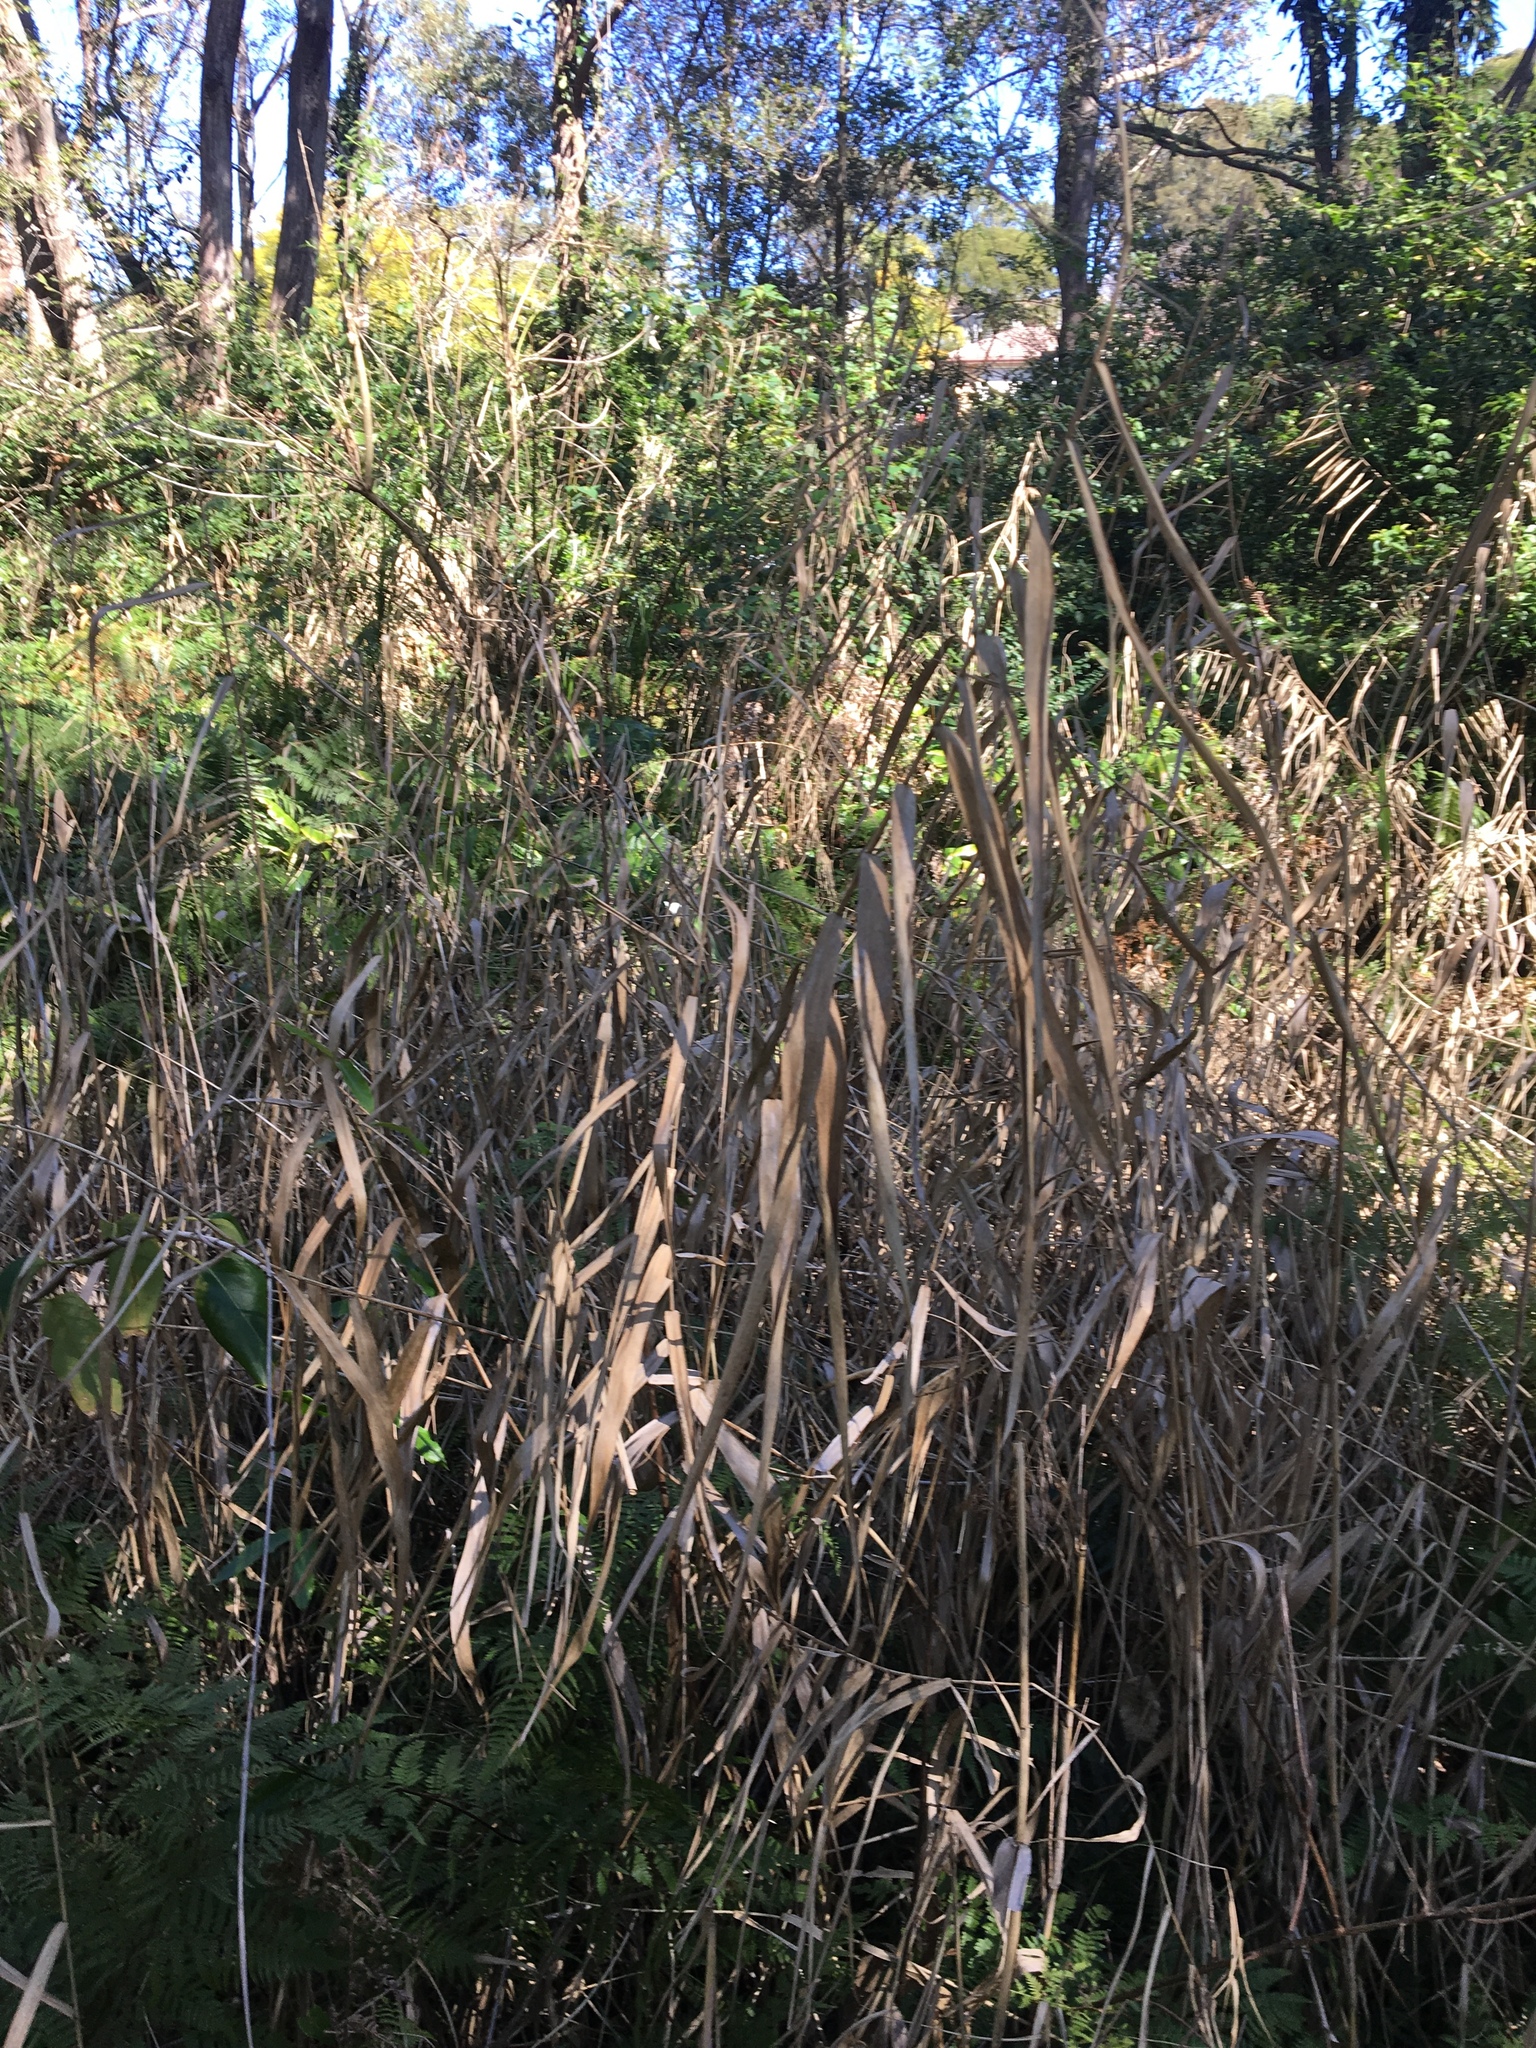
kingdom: Plantae
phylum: Tracheophyta
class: Liliopsida
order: Poales
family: Poaceae
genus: Phragmites
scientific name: Phragmites australis
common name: Common reed
